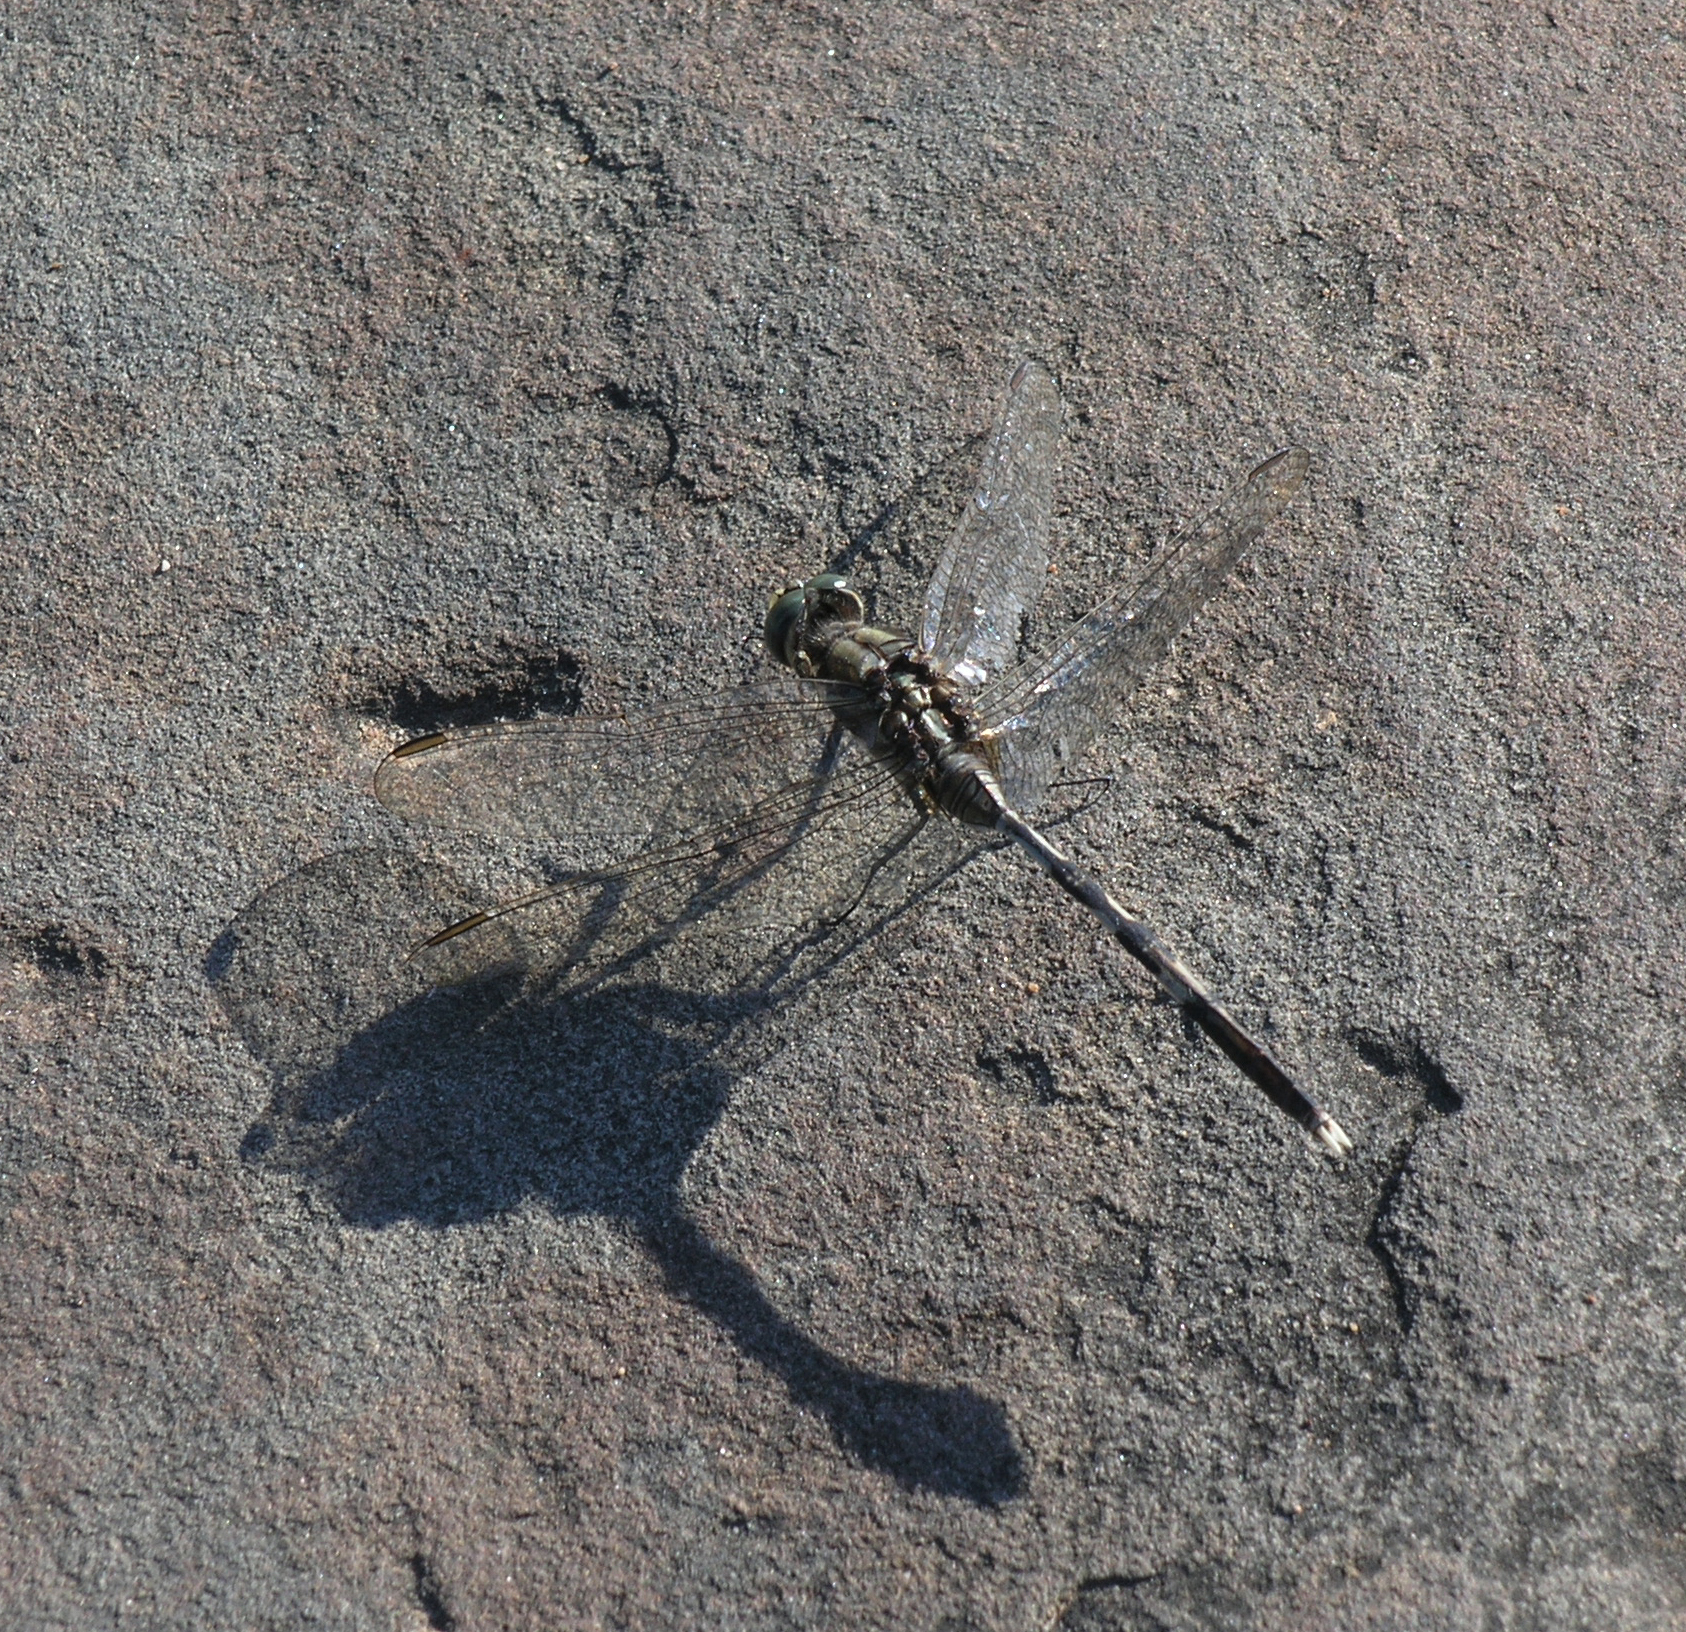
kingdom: Animalia
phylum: Arthropoda
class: Insecta
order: Odonata
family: Libellulidae
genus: Diplacodes
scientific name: Diplacodes trivialis
